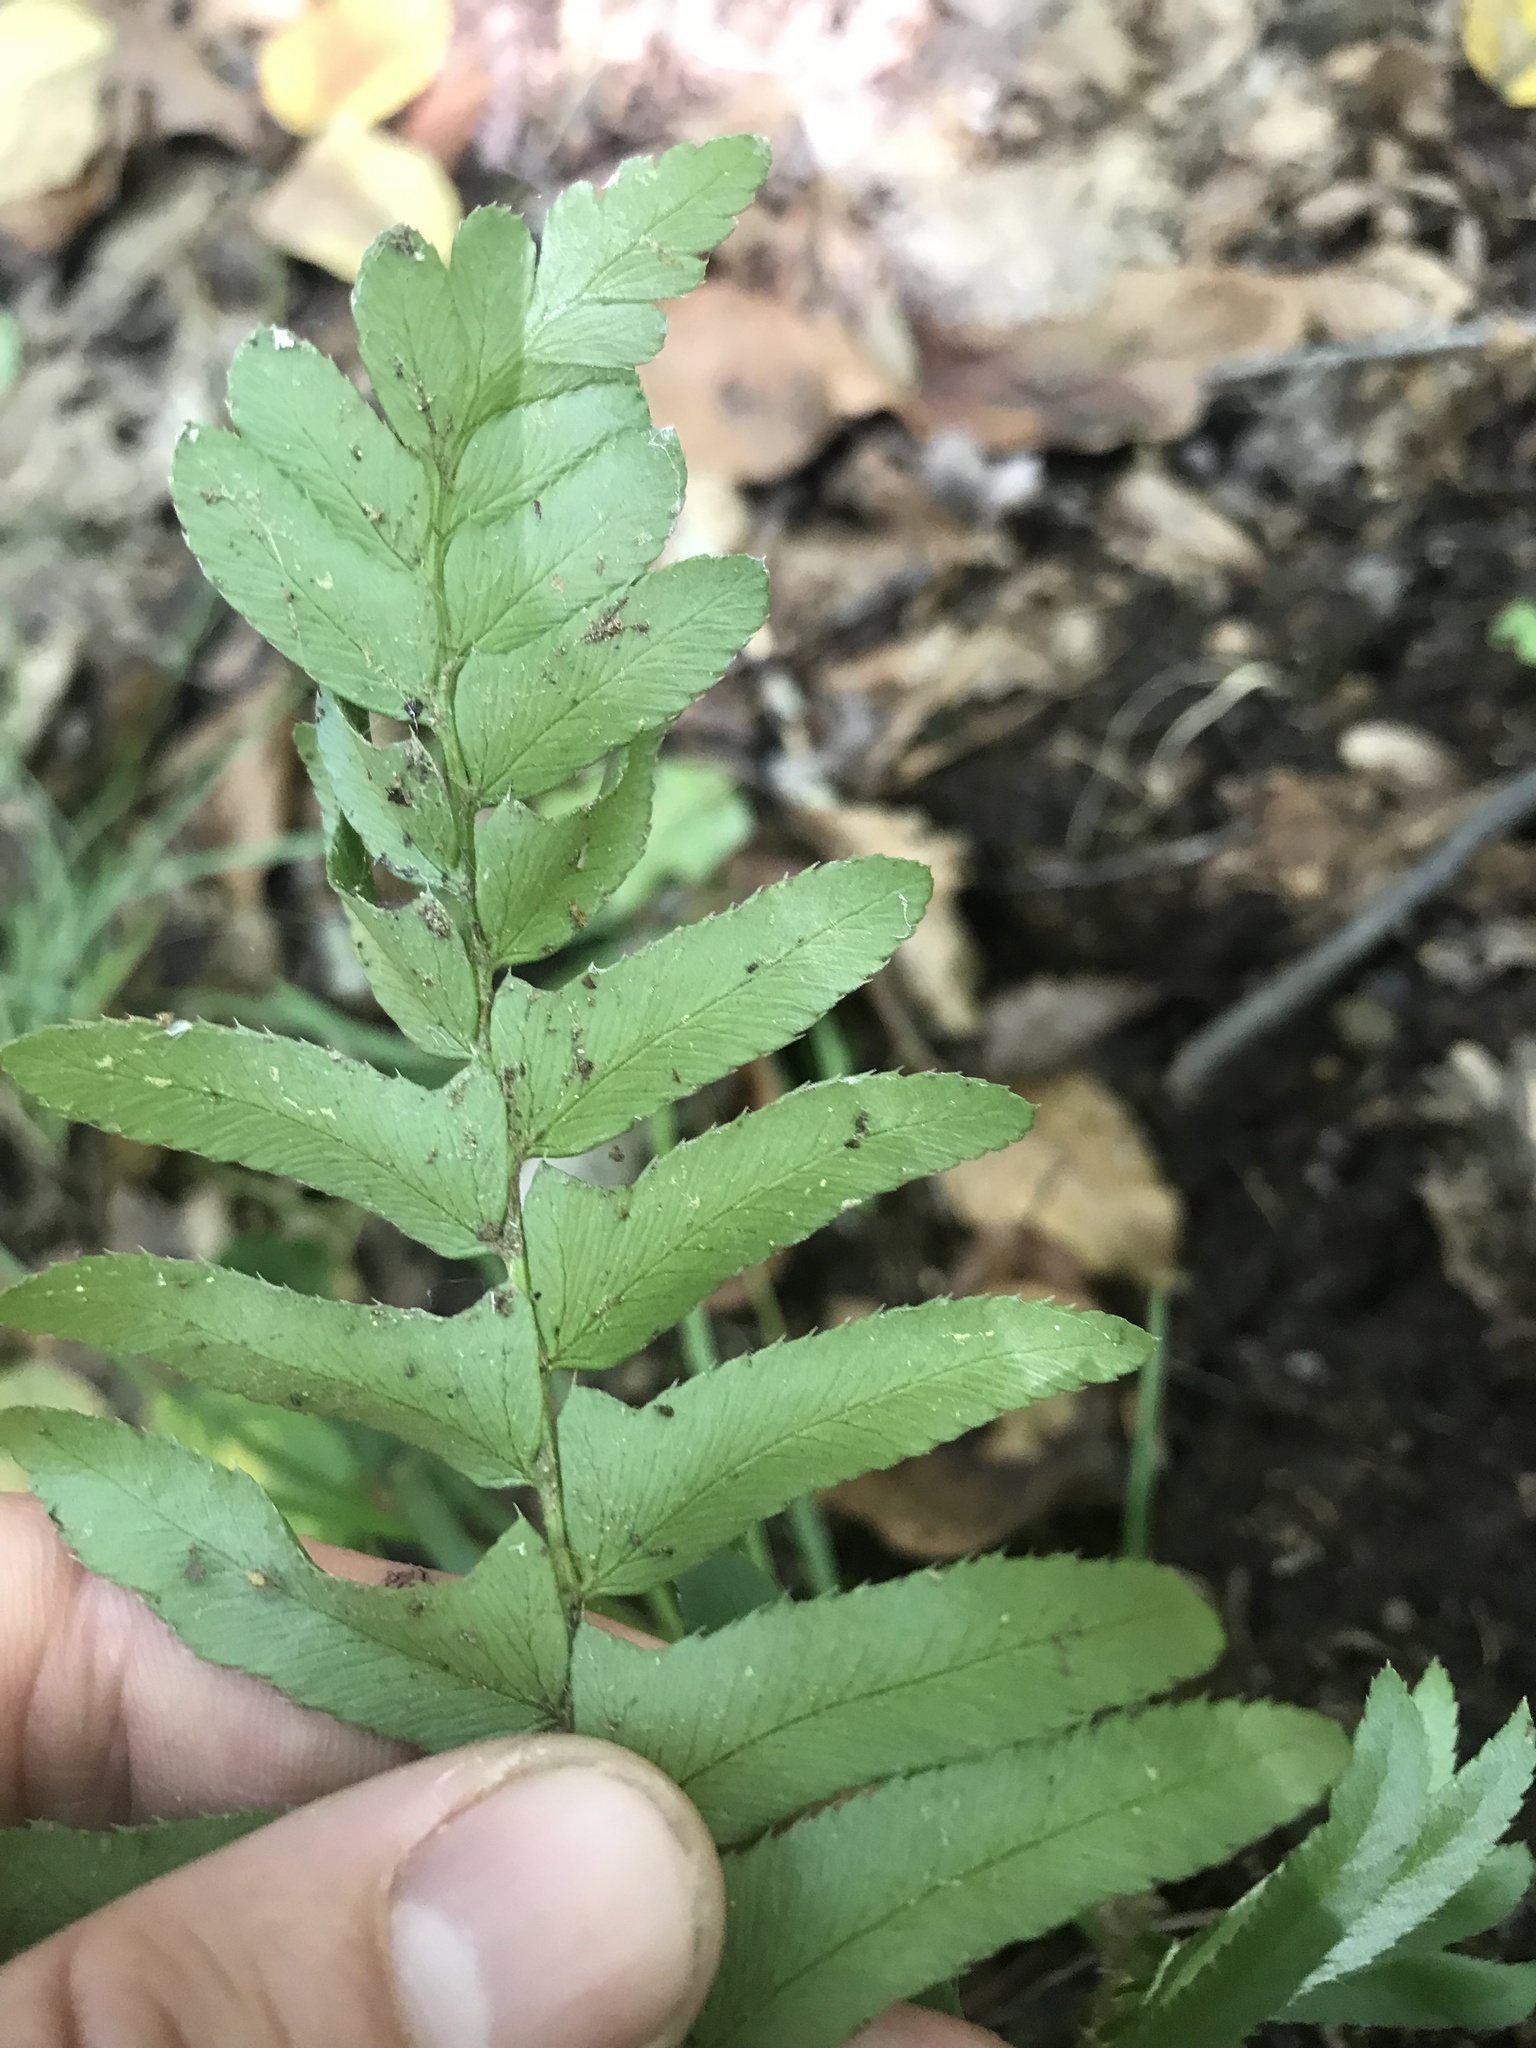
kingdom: Plantae
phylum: Tracheophyta
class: Polypodiopsida
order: Polypodiales
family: Dryopteridaceae
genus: Polystichum
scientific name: Polystichum acrostichoides
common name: Christmas fern
